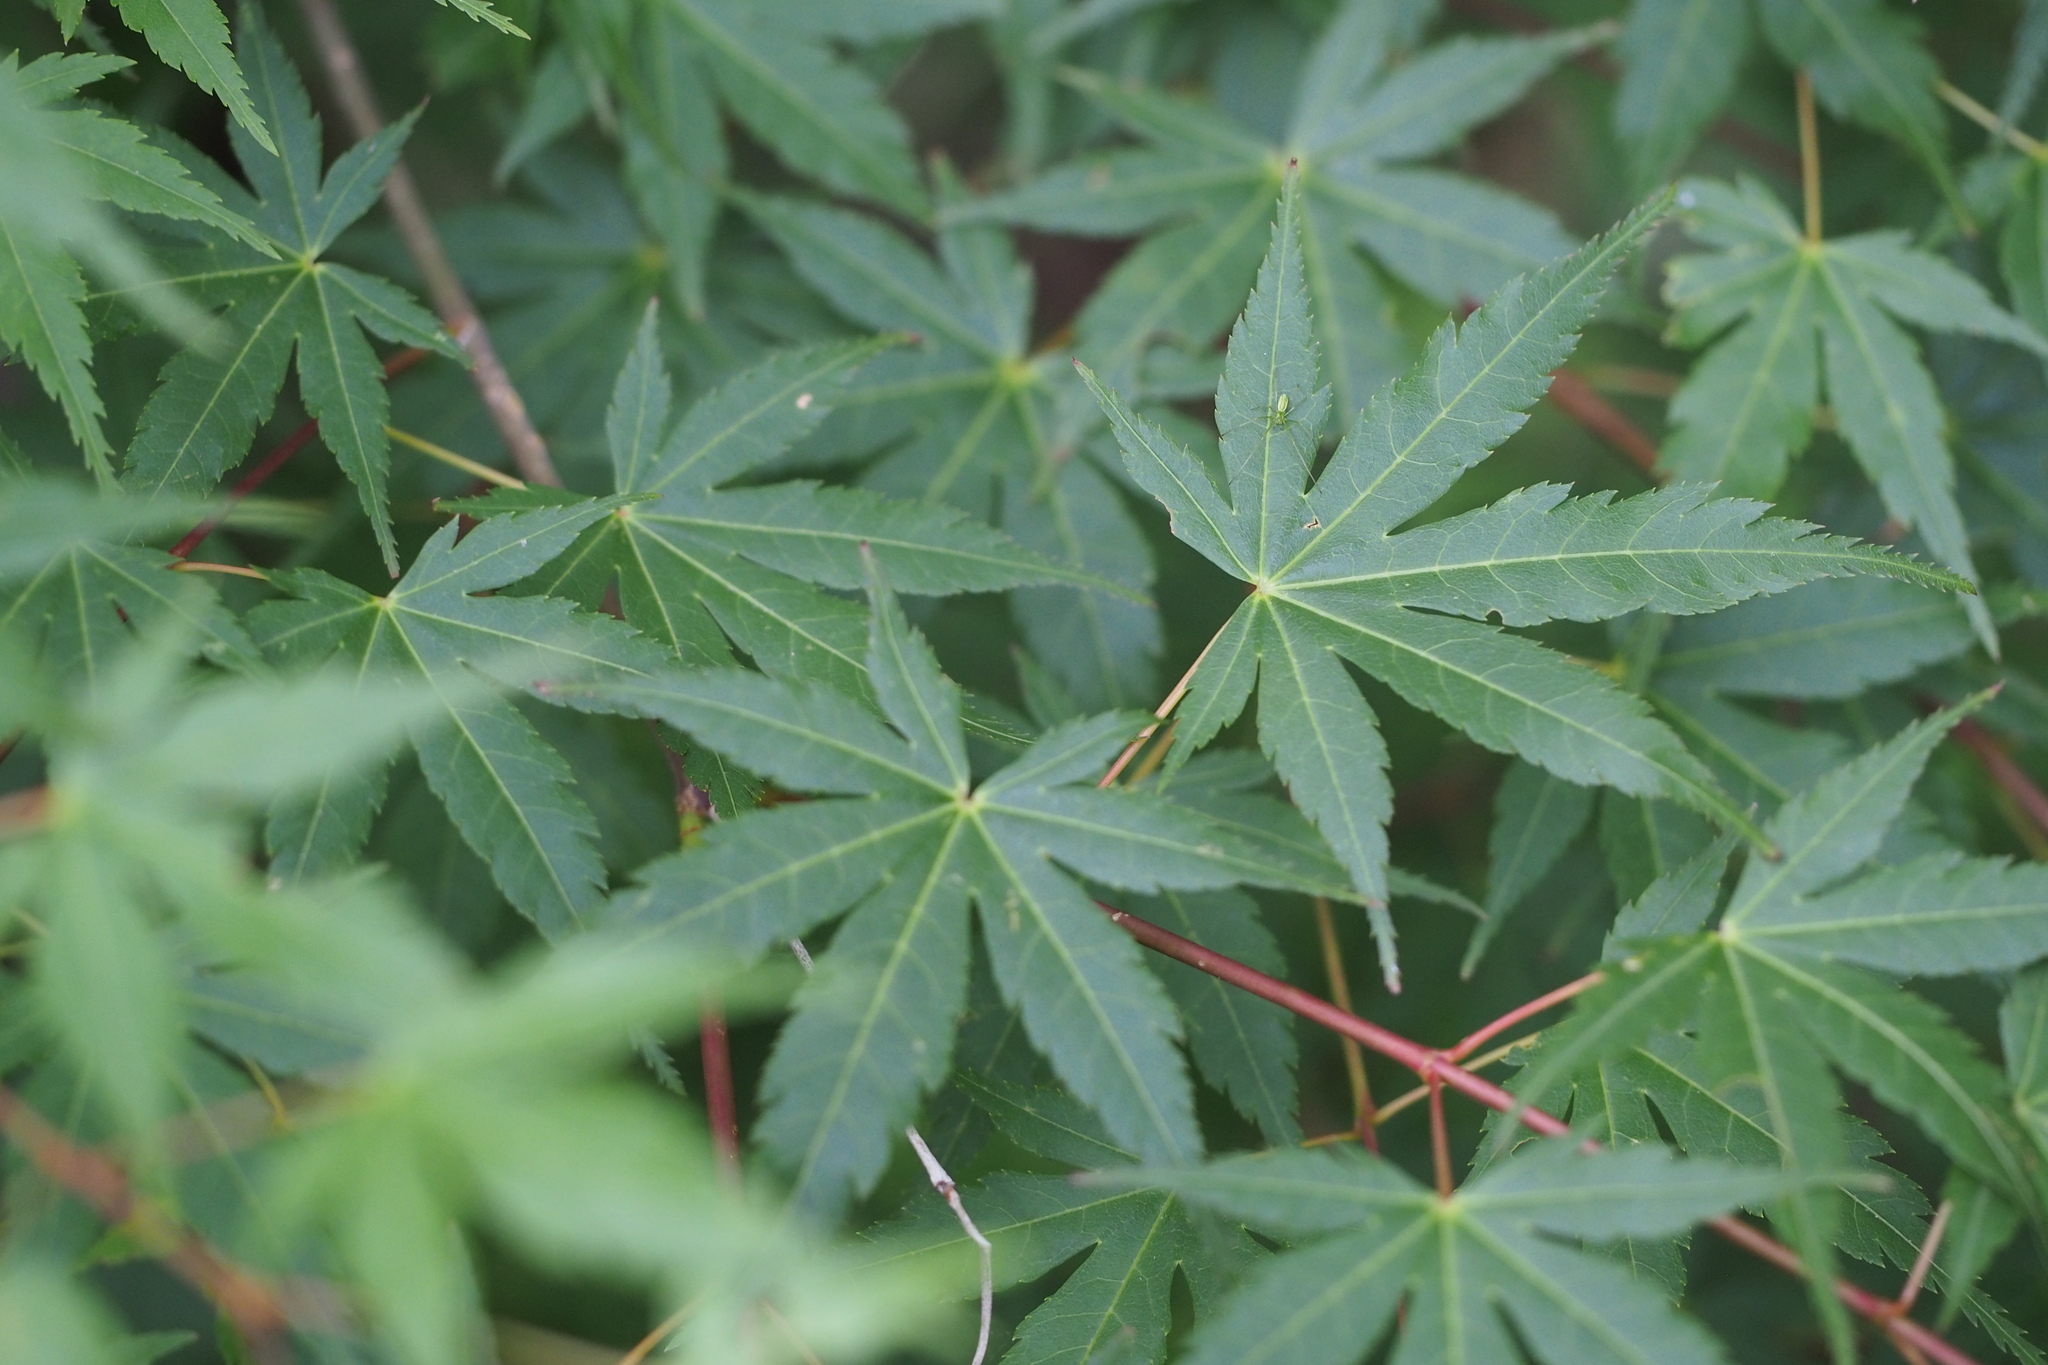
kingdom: Plantae
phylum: Tracheophyta
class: Magnoliopsida
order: Sapindales
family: Sapindaceae
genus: Acer
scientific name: Acer palmatum
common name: Japanese maple
